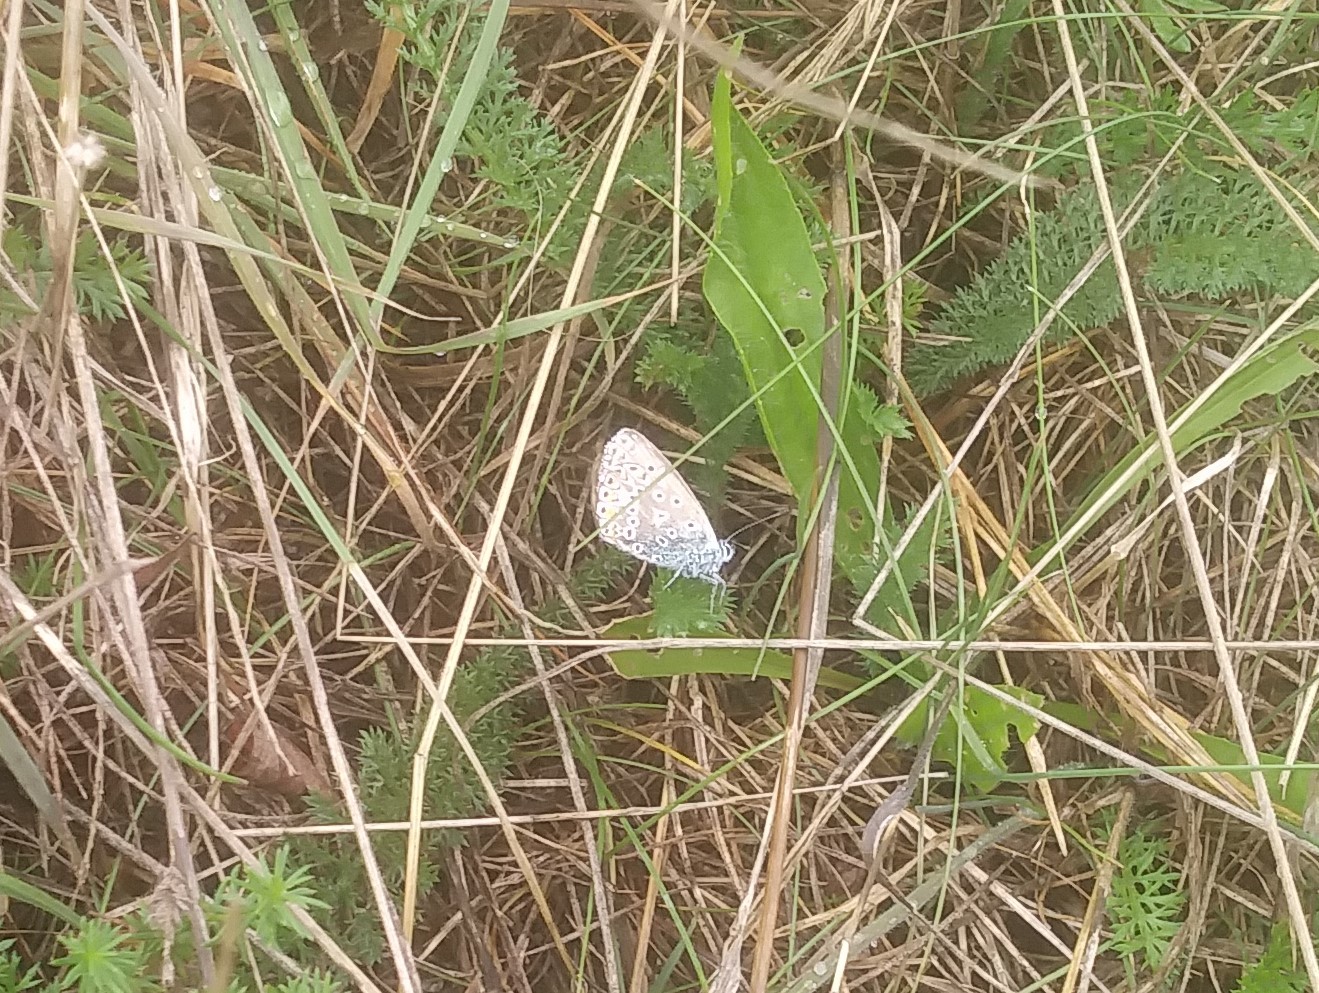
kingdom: Animalia
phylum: Arthropoda
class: Insecta
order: Lepidoptera
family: Lycaenidae
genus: Polyommatus
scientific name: Polyommatus icarus
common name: Common blue
